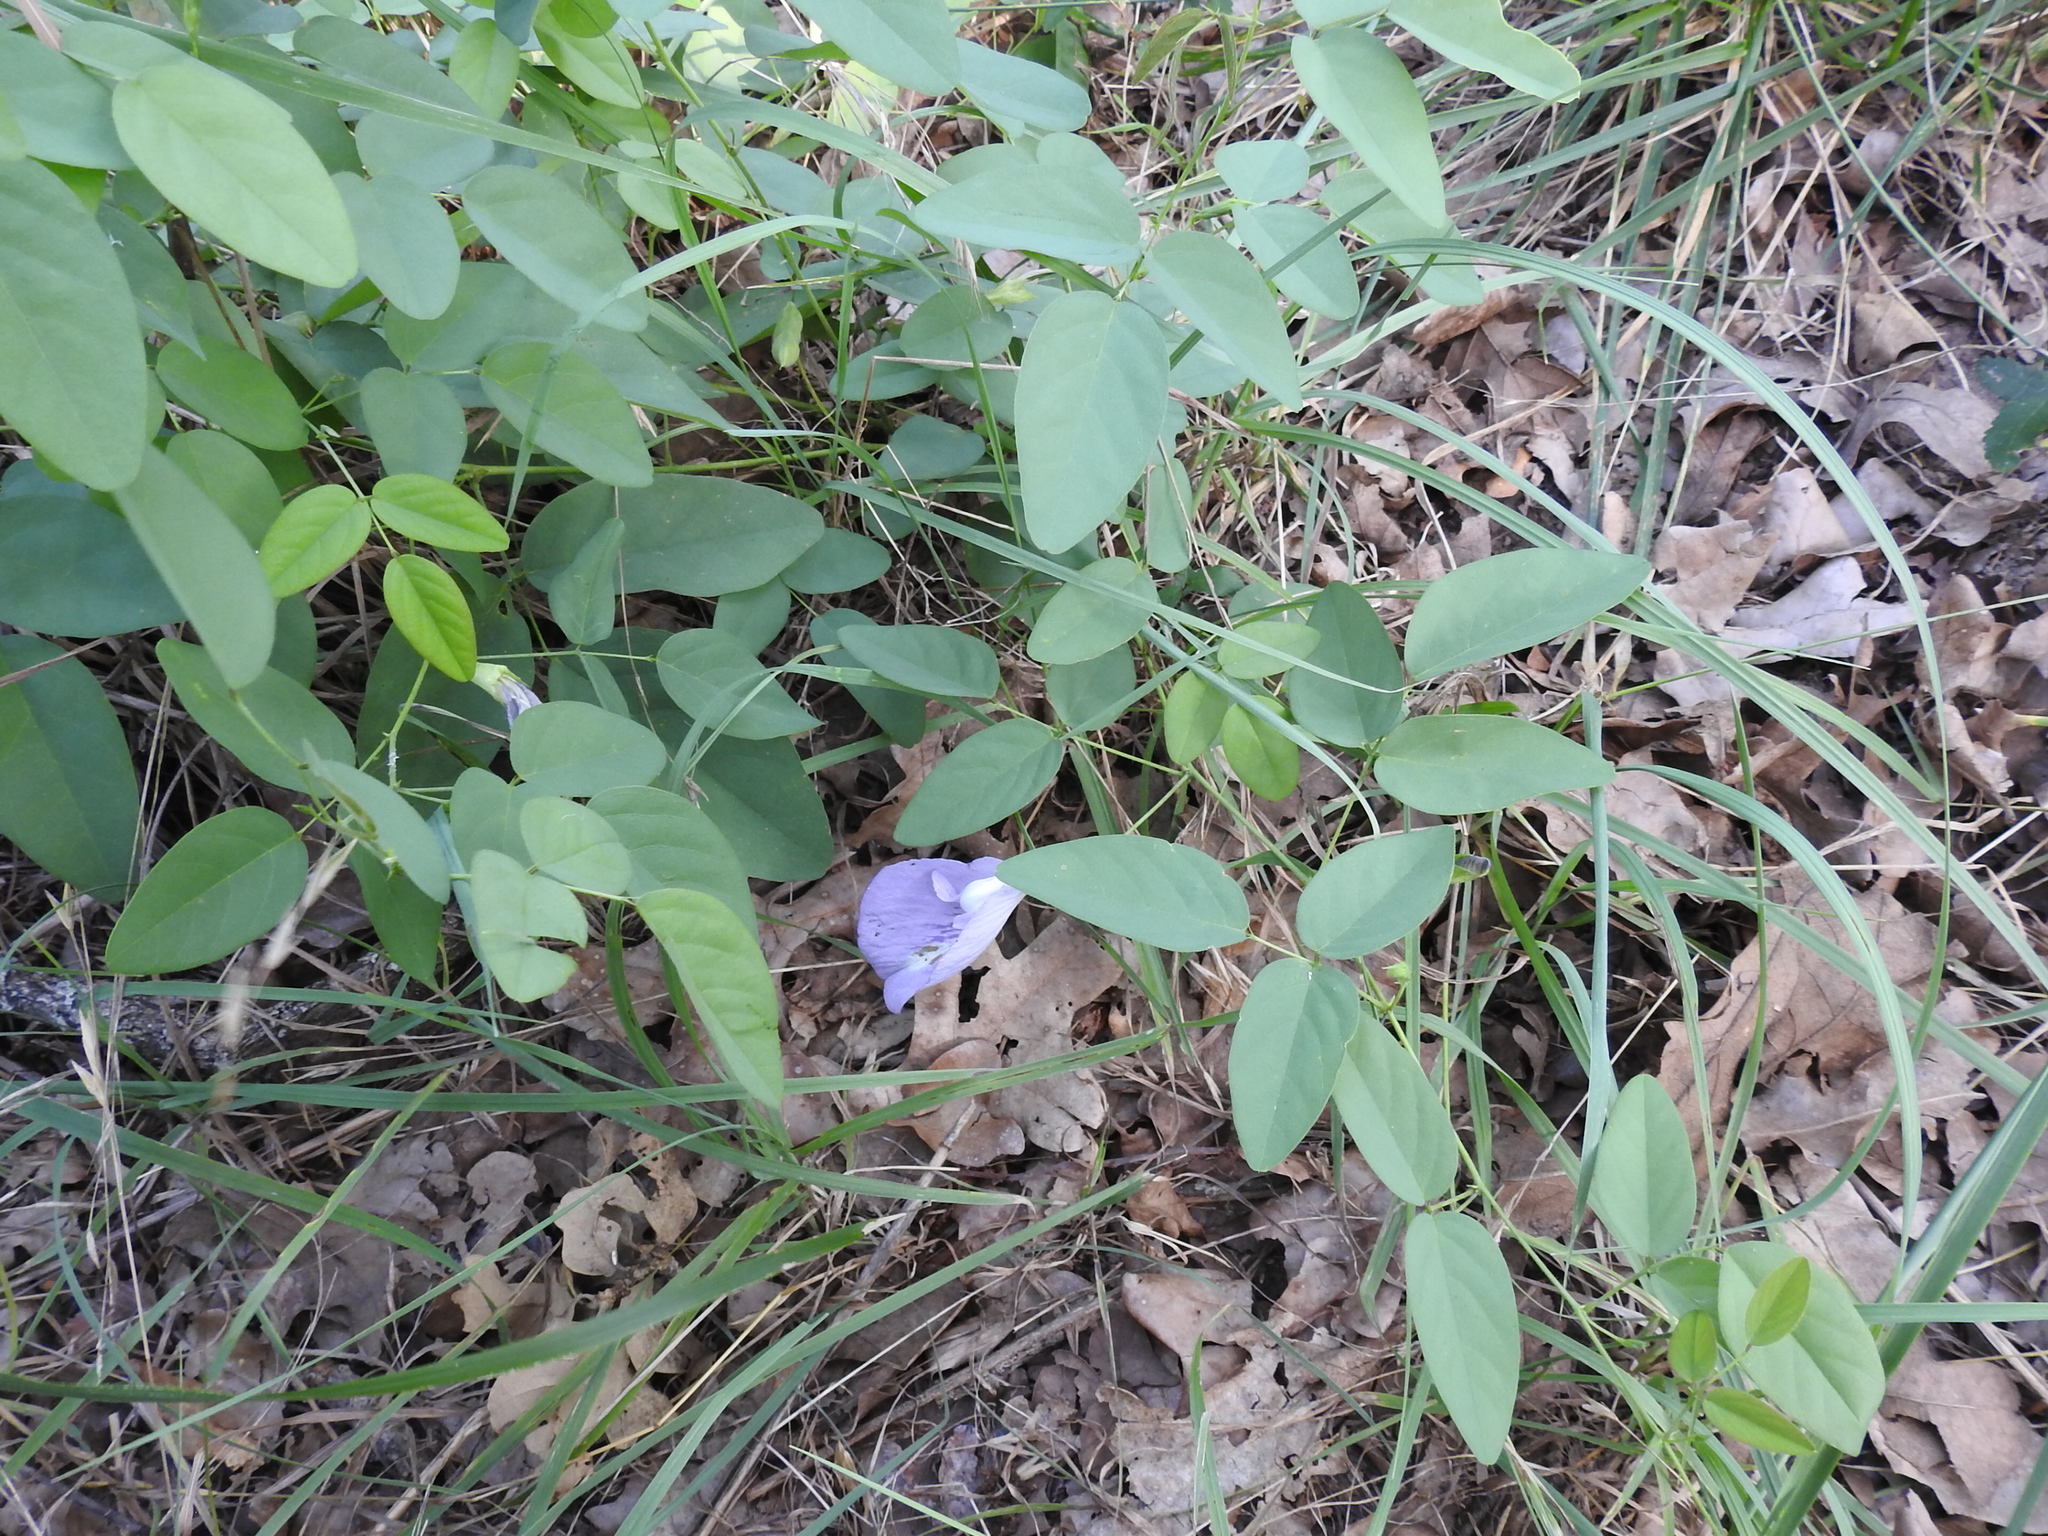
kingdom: Plantae
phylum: Tracheophyta
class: Magnoliopsida
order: Fabales
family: Fabaceae
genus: Clitoria
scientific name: Clitoria mariana
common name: Butterfly-pea
